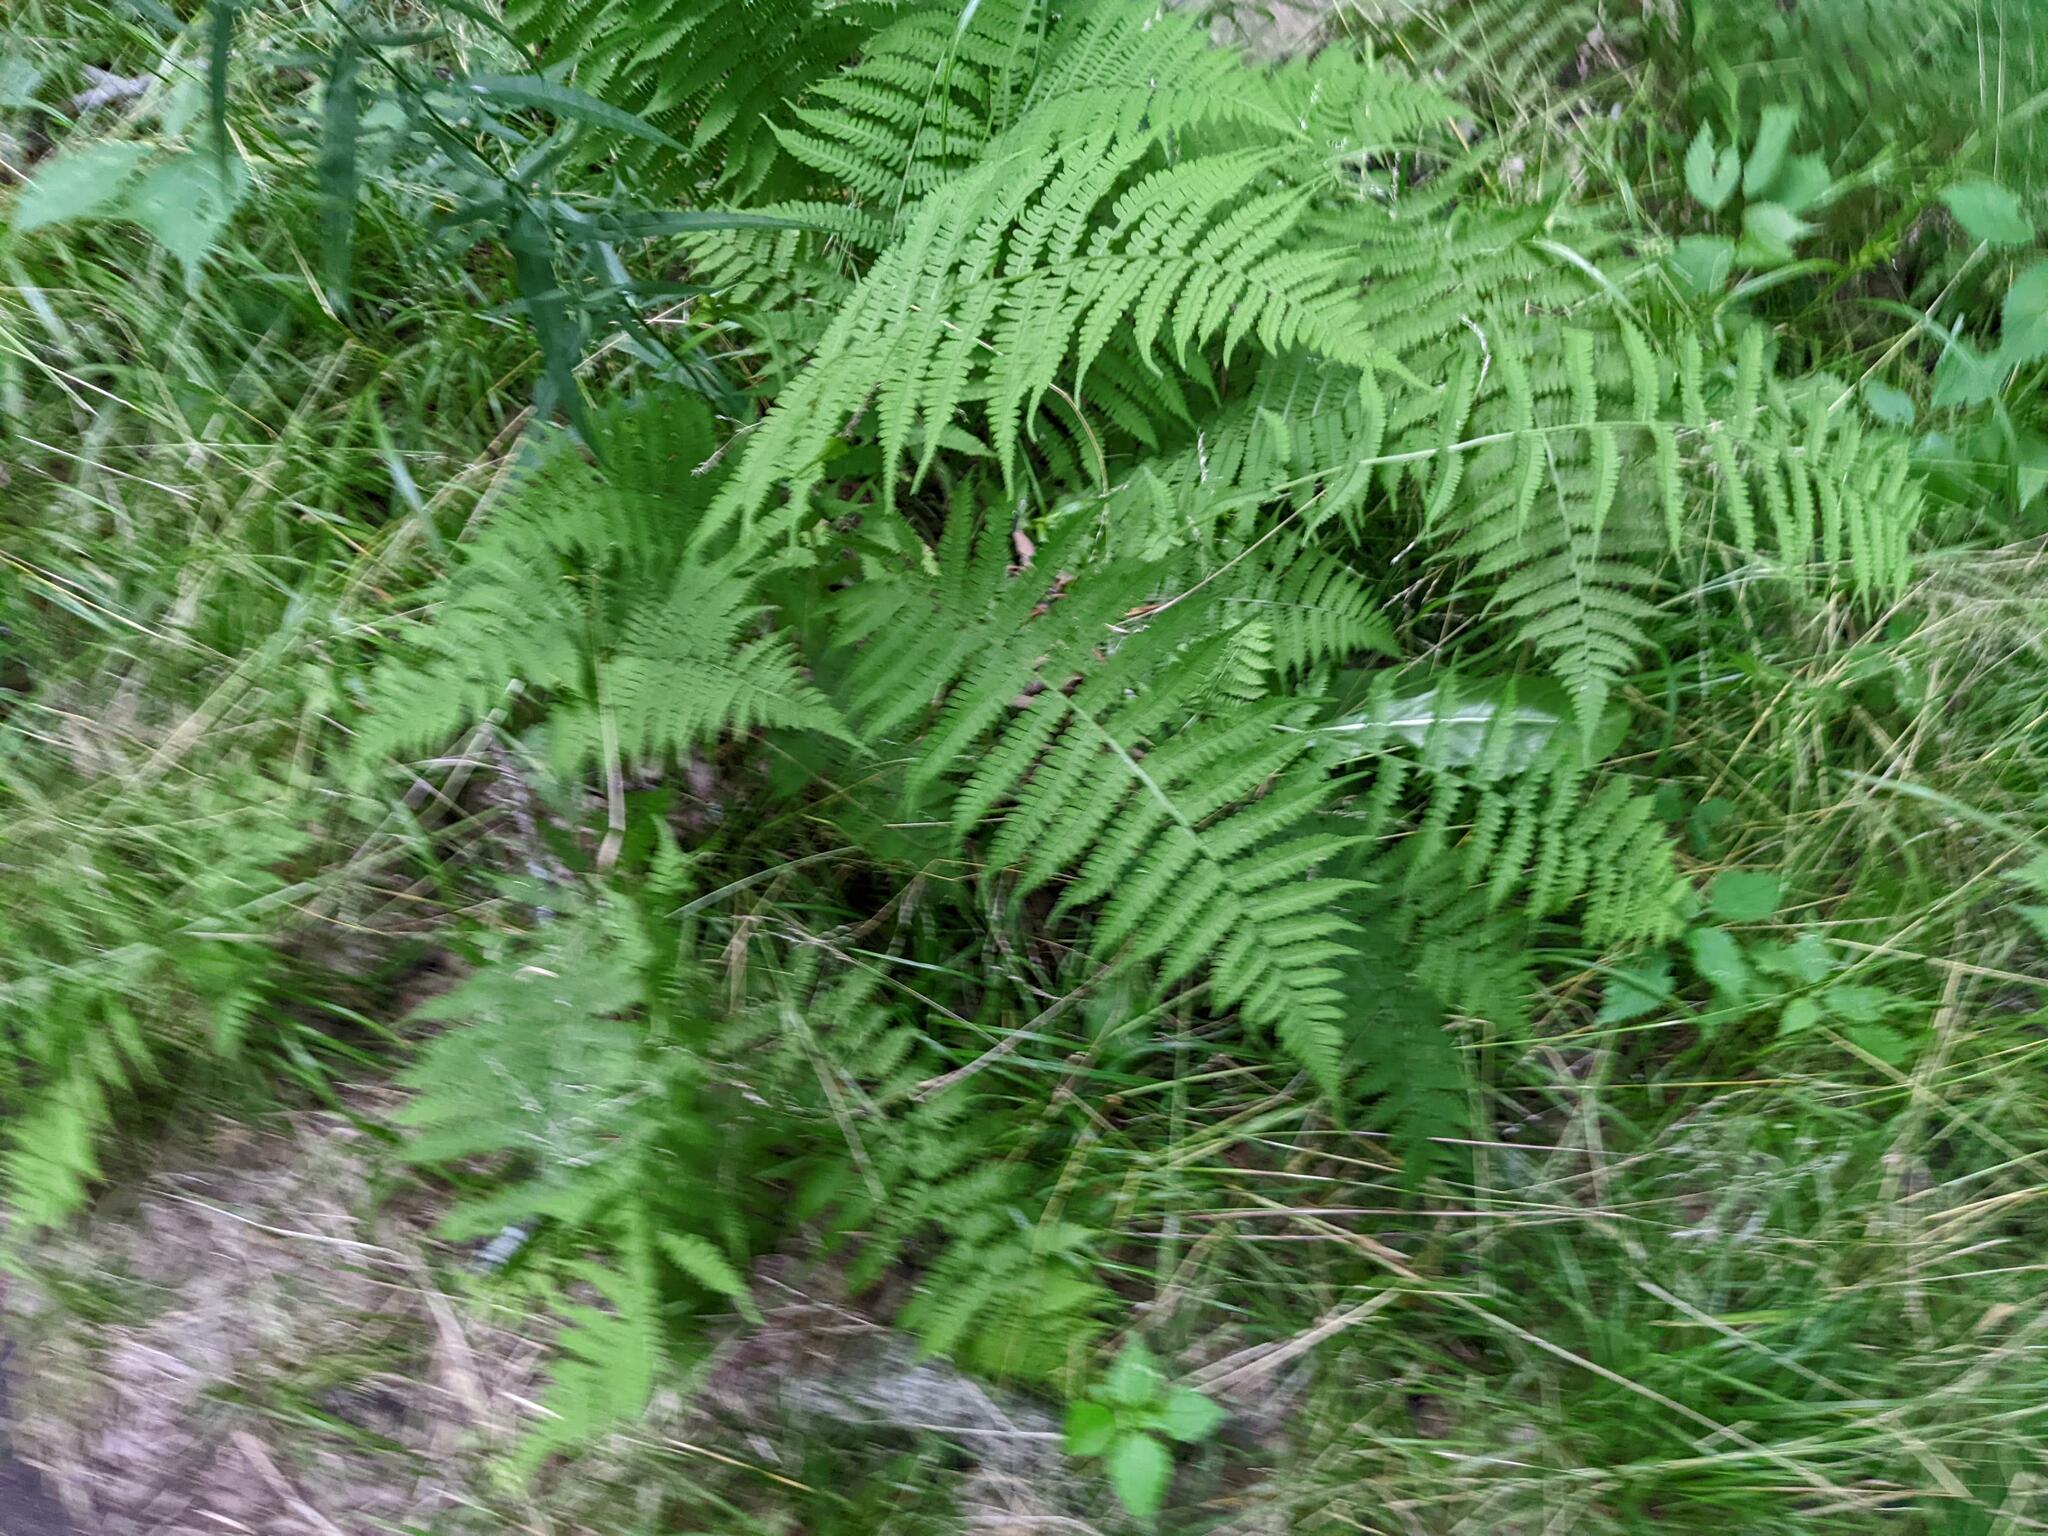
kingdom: Plantae
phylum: Tracheophyta
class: Polypodiopsida
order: Polypodiales
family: Athyriaceae
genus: Deparia
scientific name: Deparia acrostichoides
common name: Silver false spleenwort
